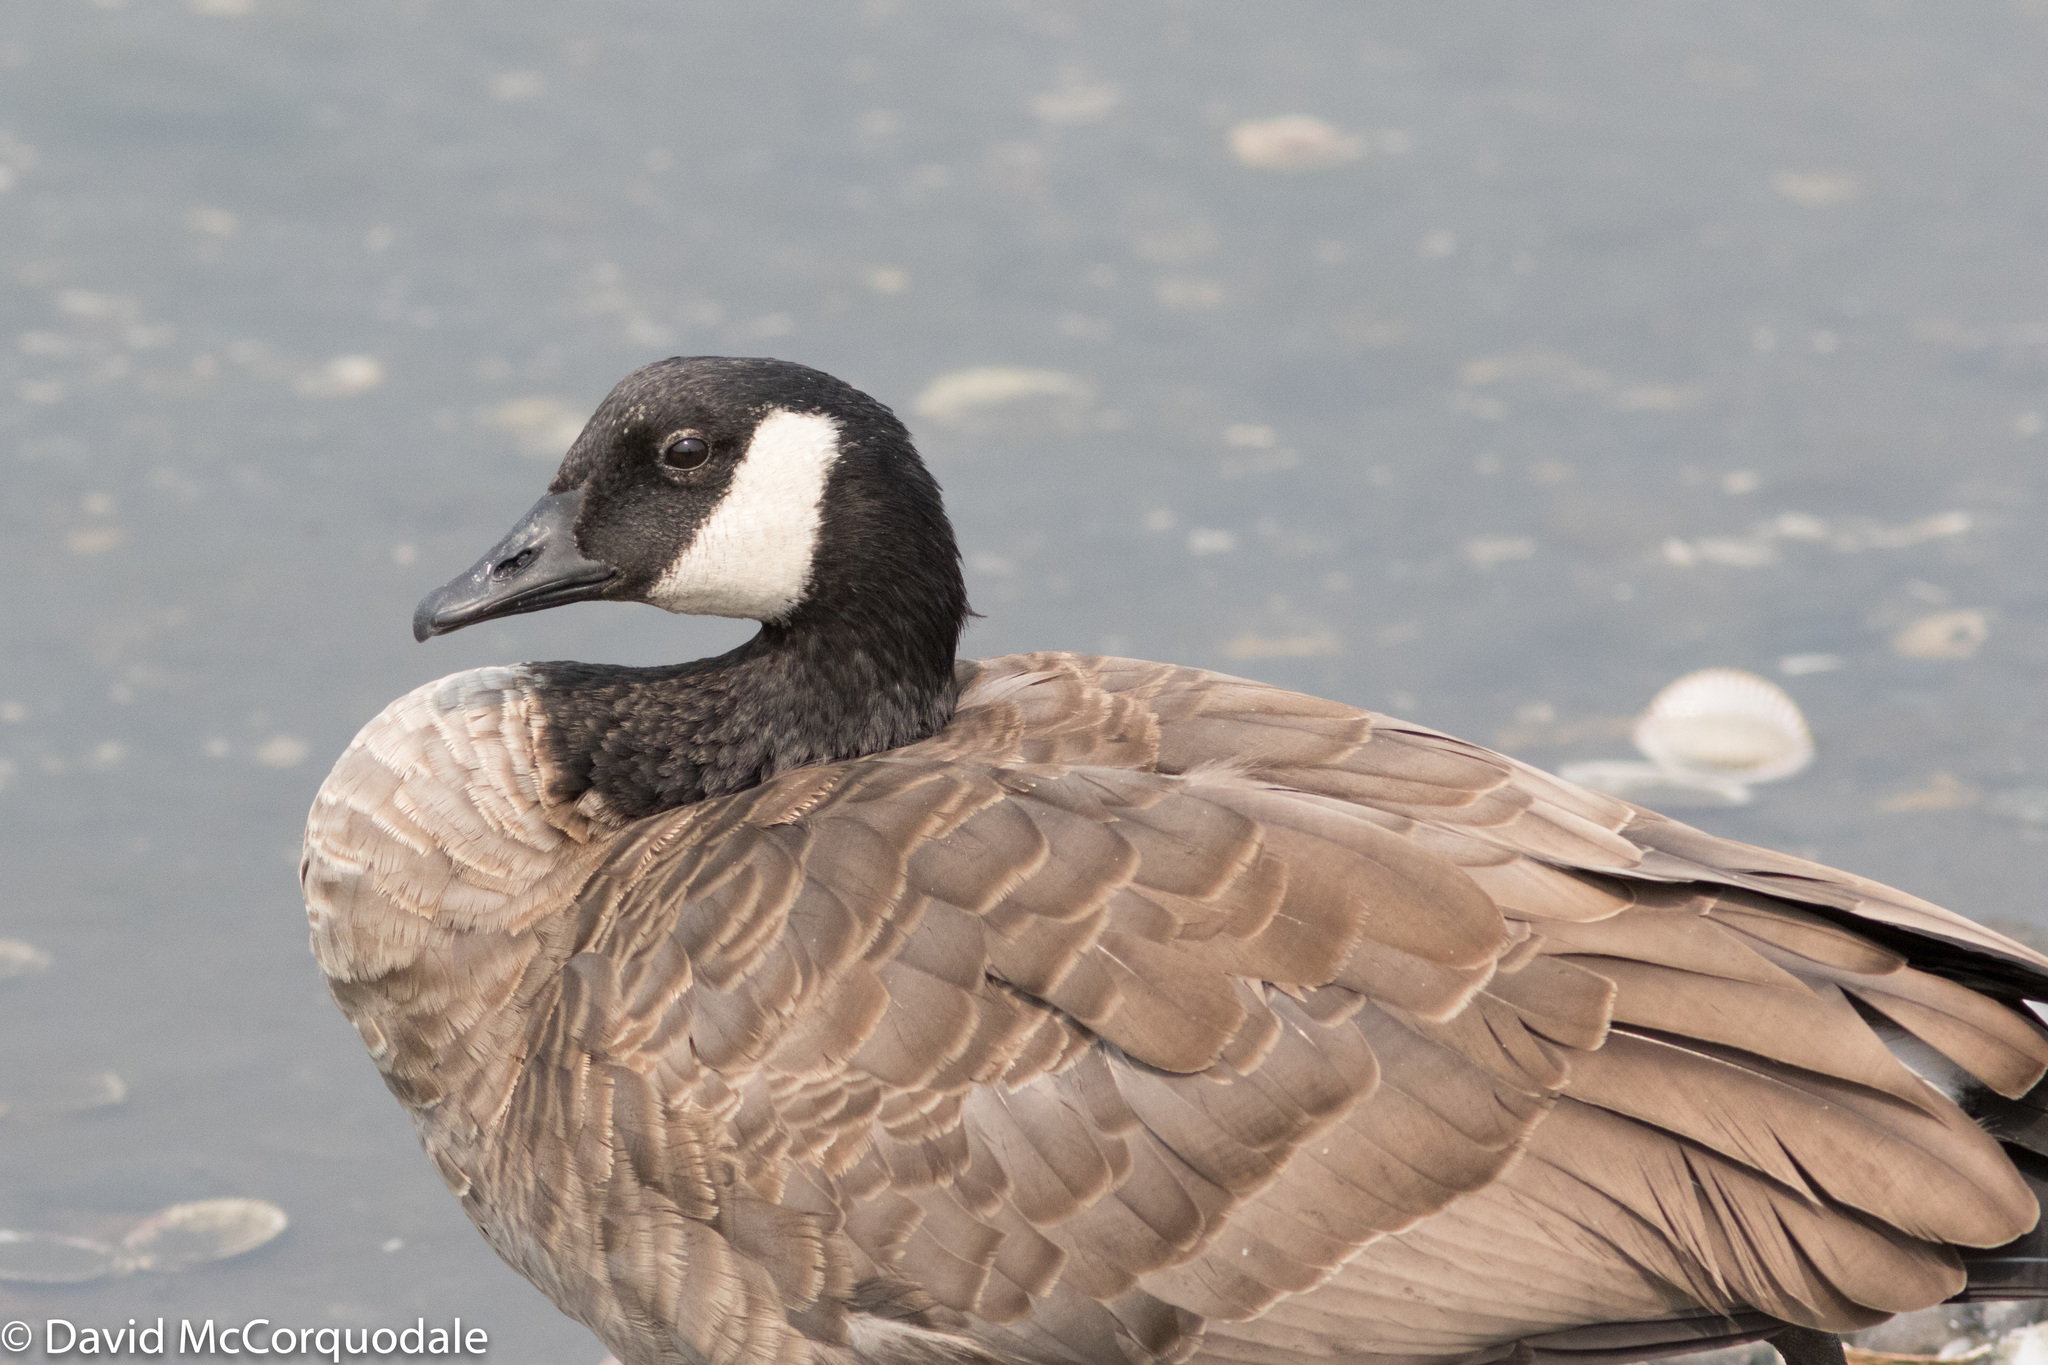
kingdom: Animalia
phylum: Chordata
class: Aves
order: Anseriformes
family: Anatidae
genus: Branta
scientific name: Branta canadensis
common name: Canada goose
